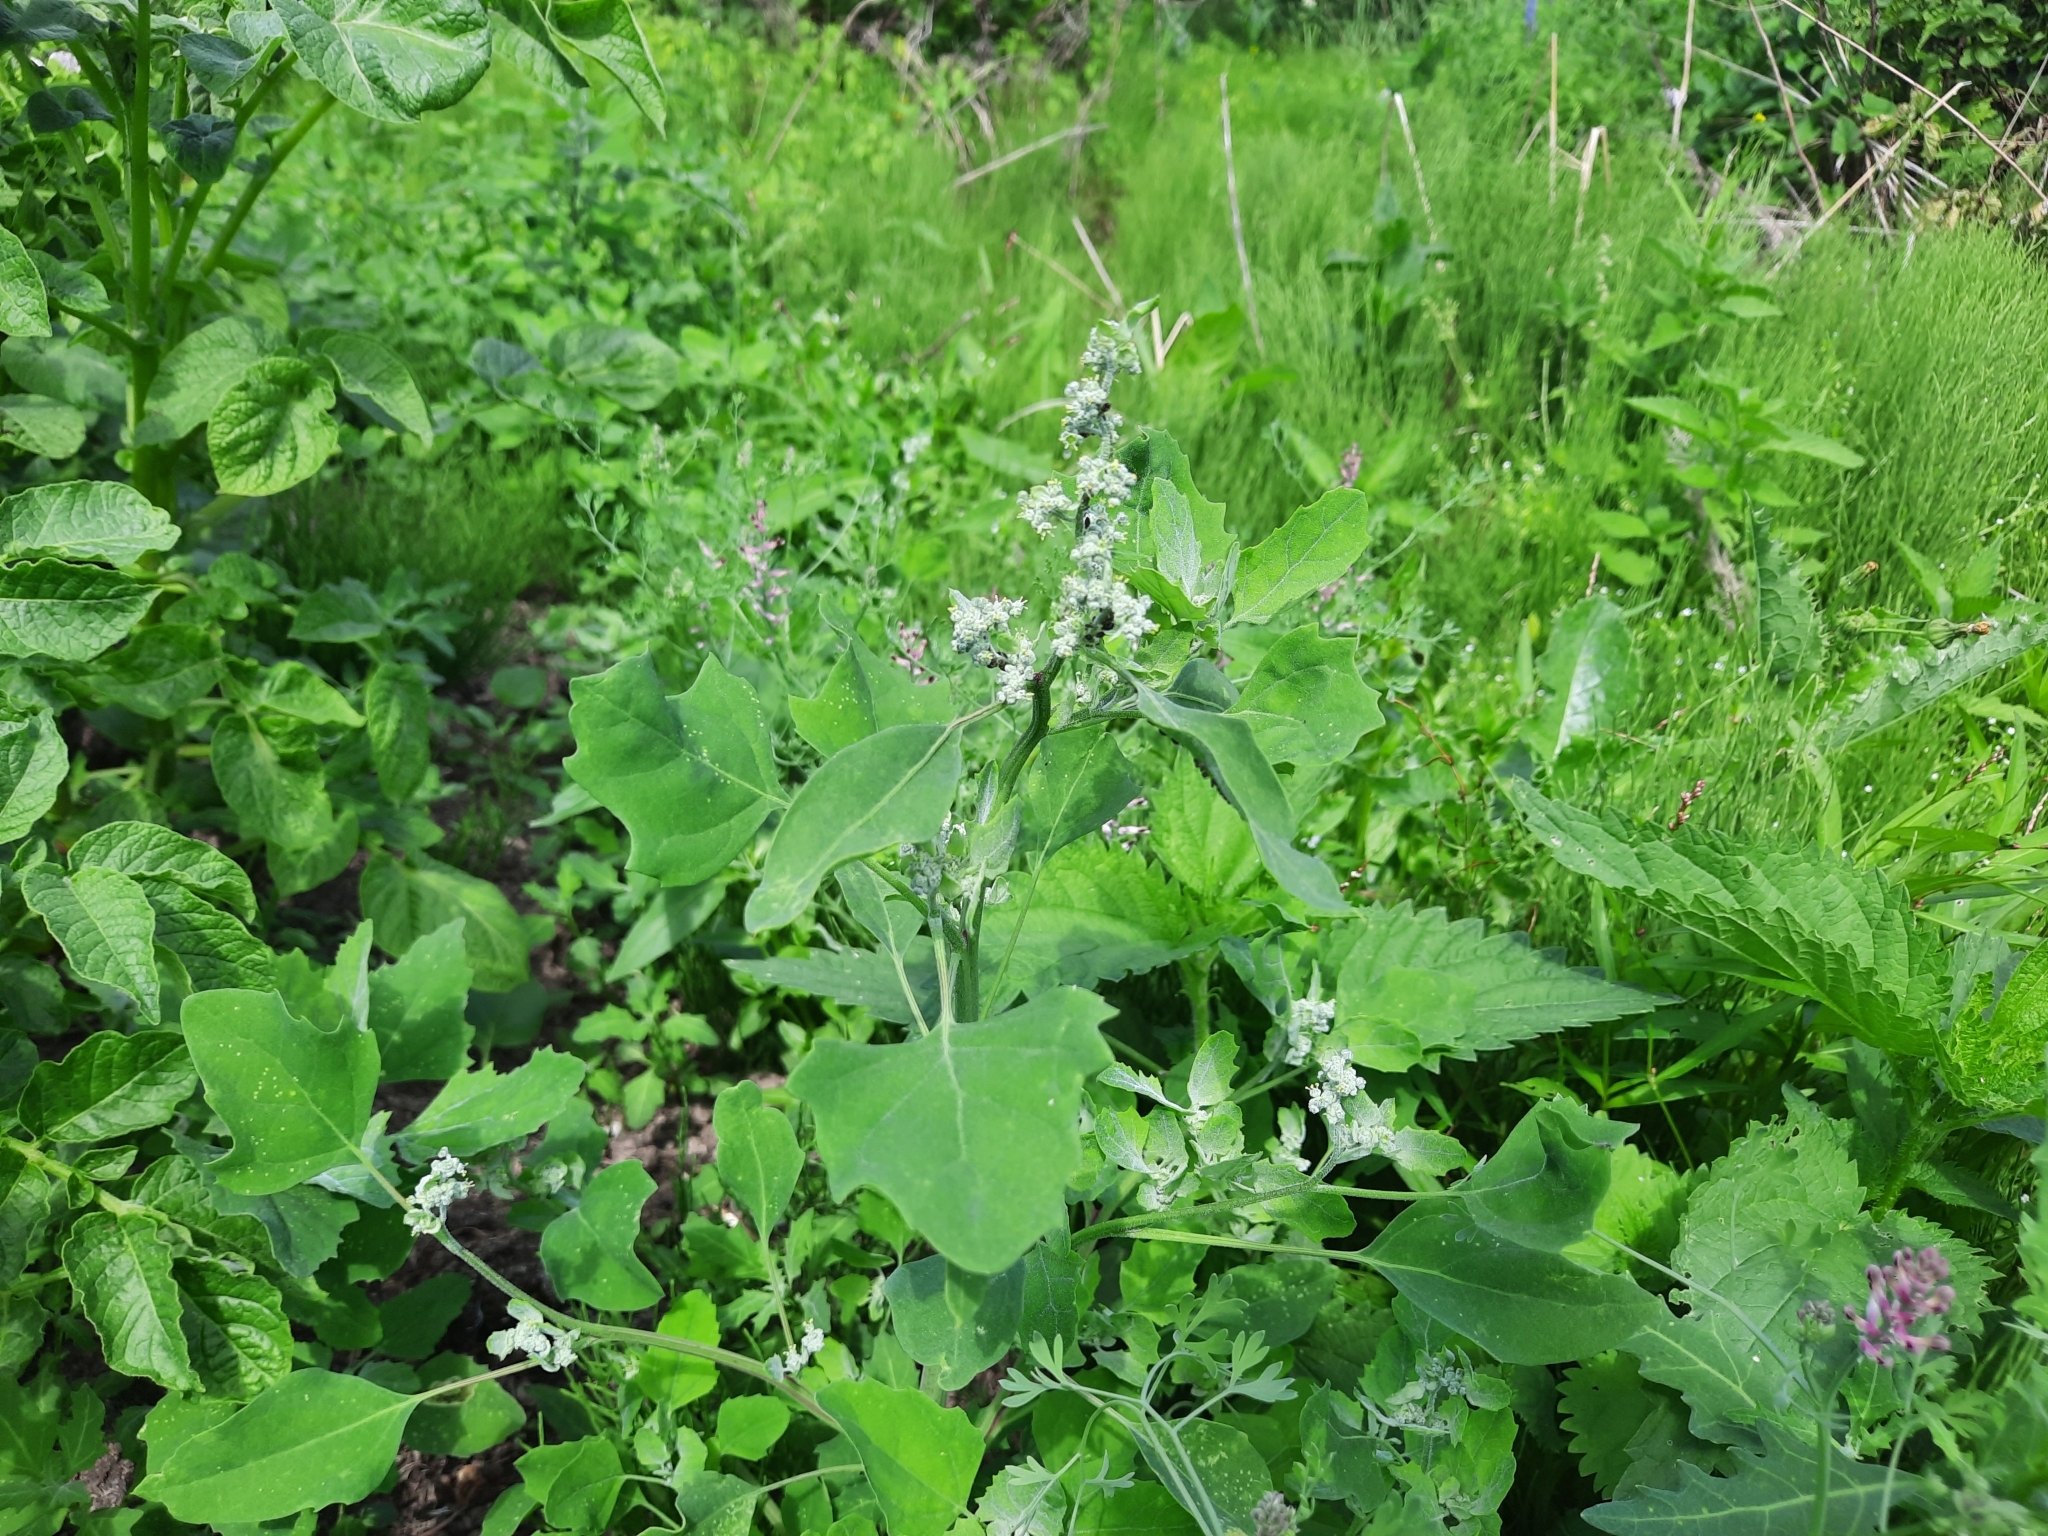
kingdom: Plantae
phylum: Tracheophyta
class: Magnoliopsida
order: Caryophyllales
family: Amaranthaceae
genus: Chenopodium
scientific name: Chenopodium album
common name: Fat-hen
